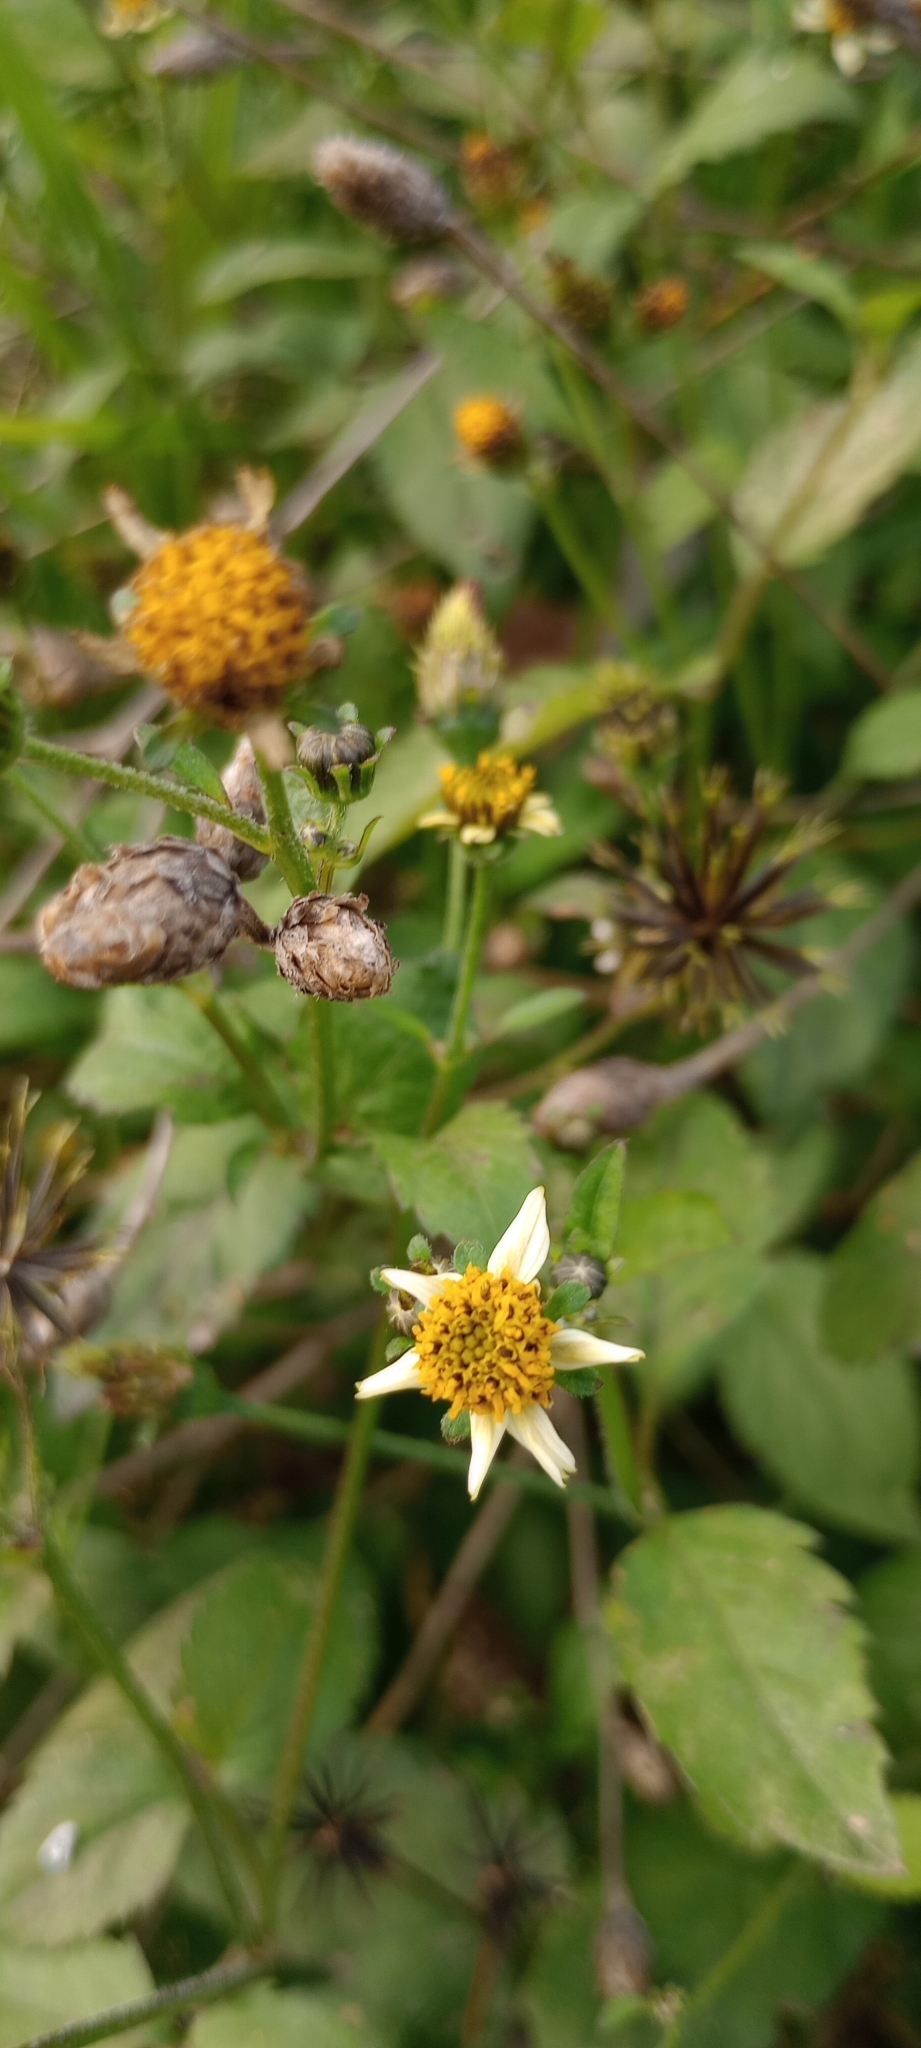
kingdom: Plantae
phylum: Tracheophyta
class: Magnoliopsida
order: Asterales
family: Asteraceae
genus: Bidens
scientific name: Bidens pilosa
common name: Black-jack
